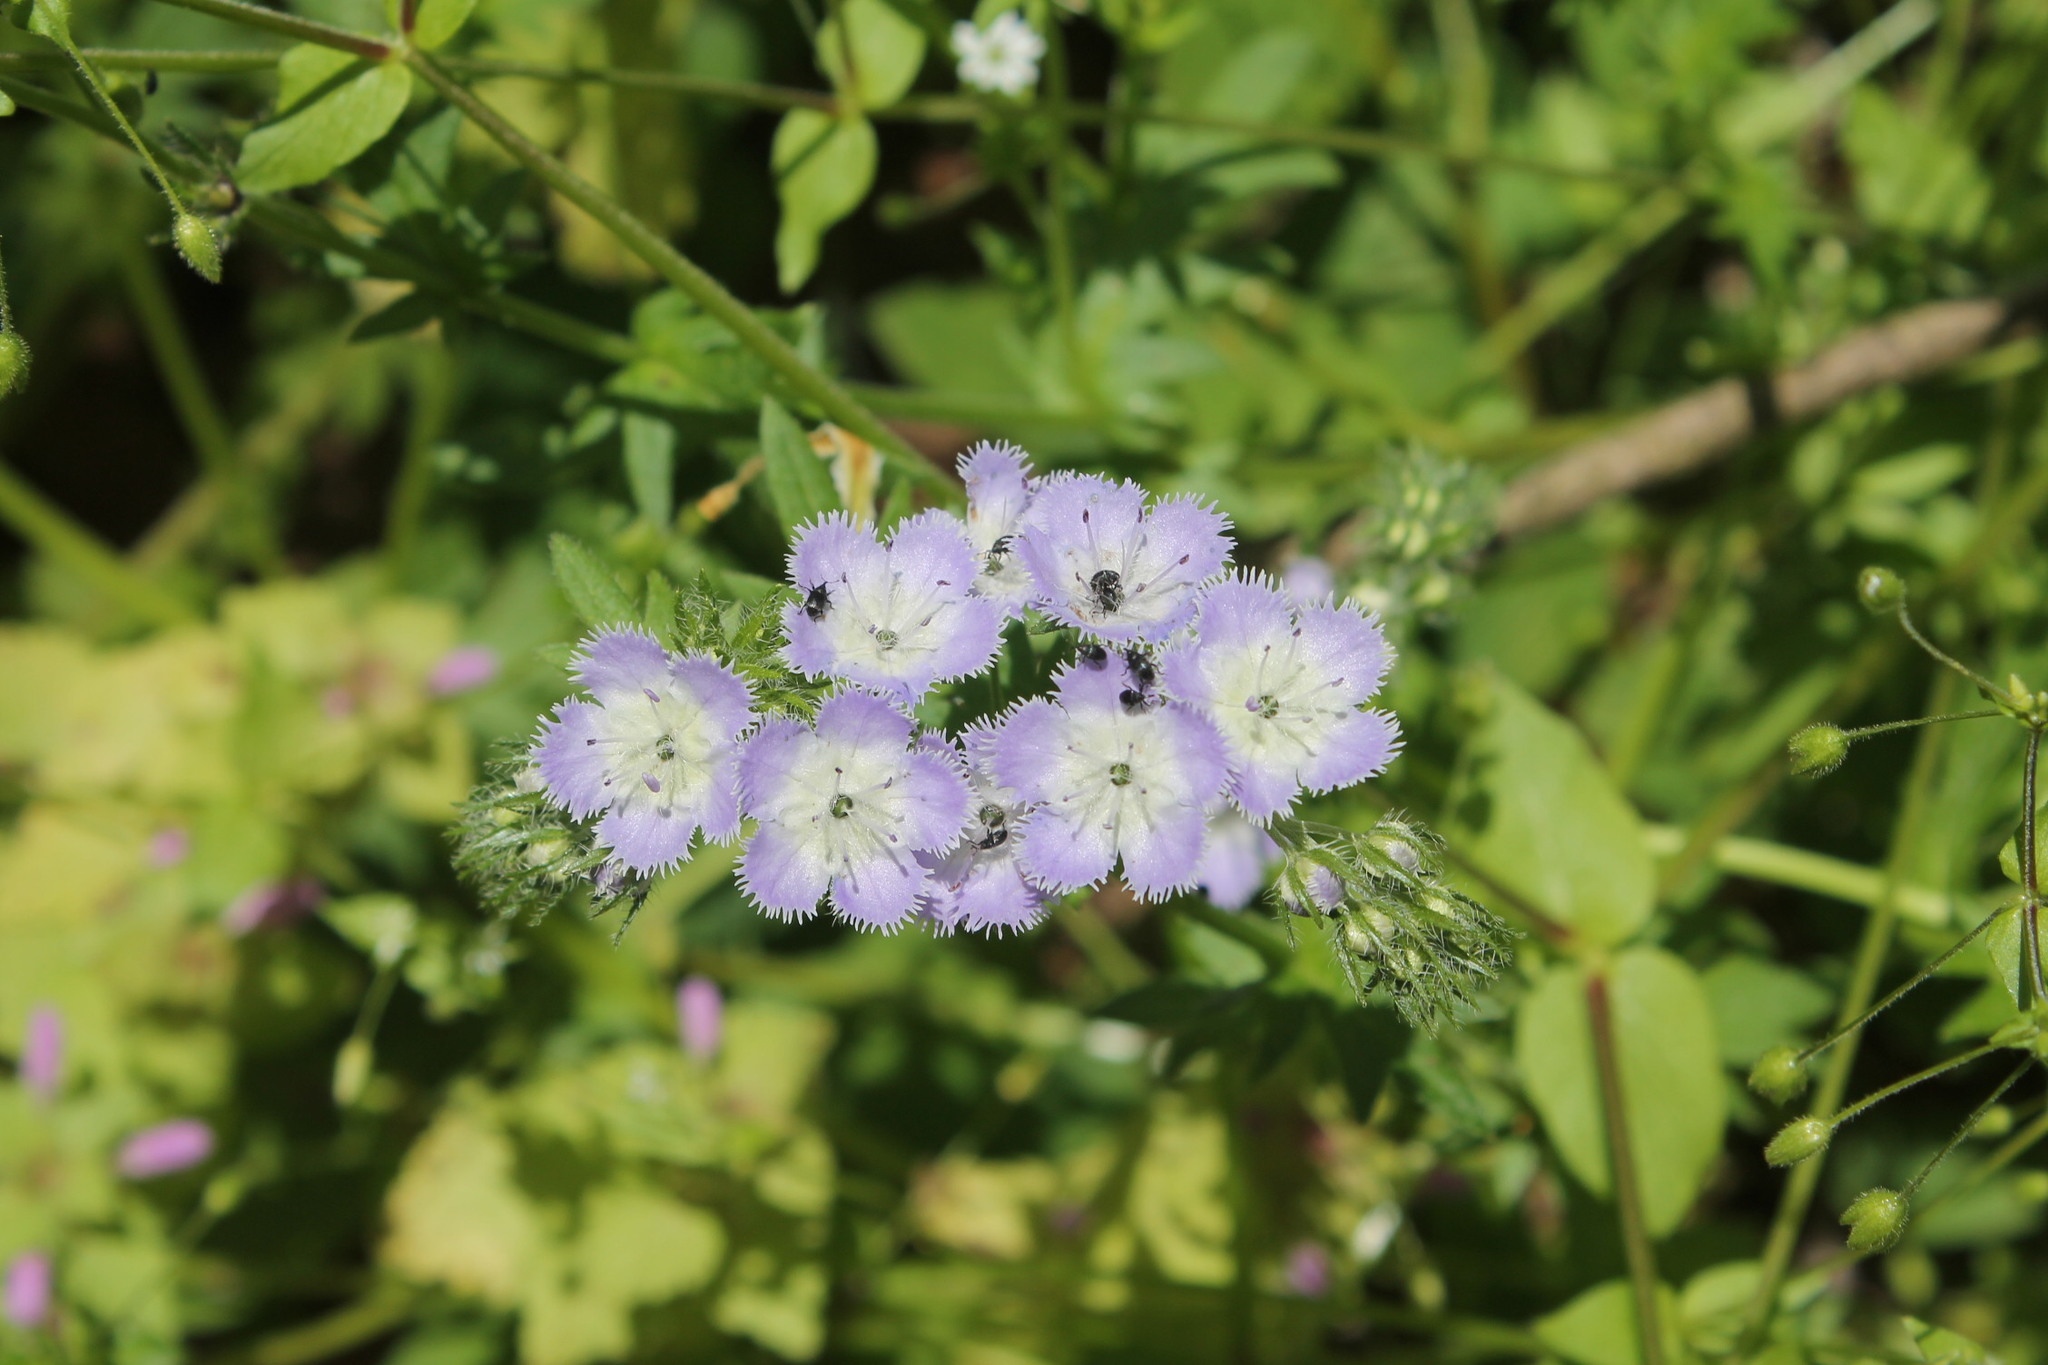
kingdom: Plantae
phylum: Tracheophyta
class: Magnoliopsida
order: Boraginales
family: Hydrophyllaceae
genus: Phacelia
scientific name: Phacelia purshii
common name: Miami-mist
